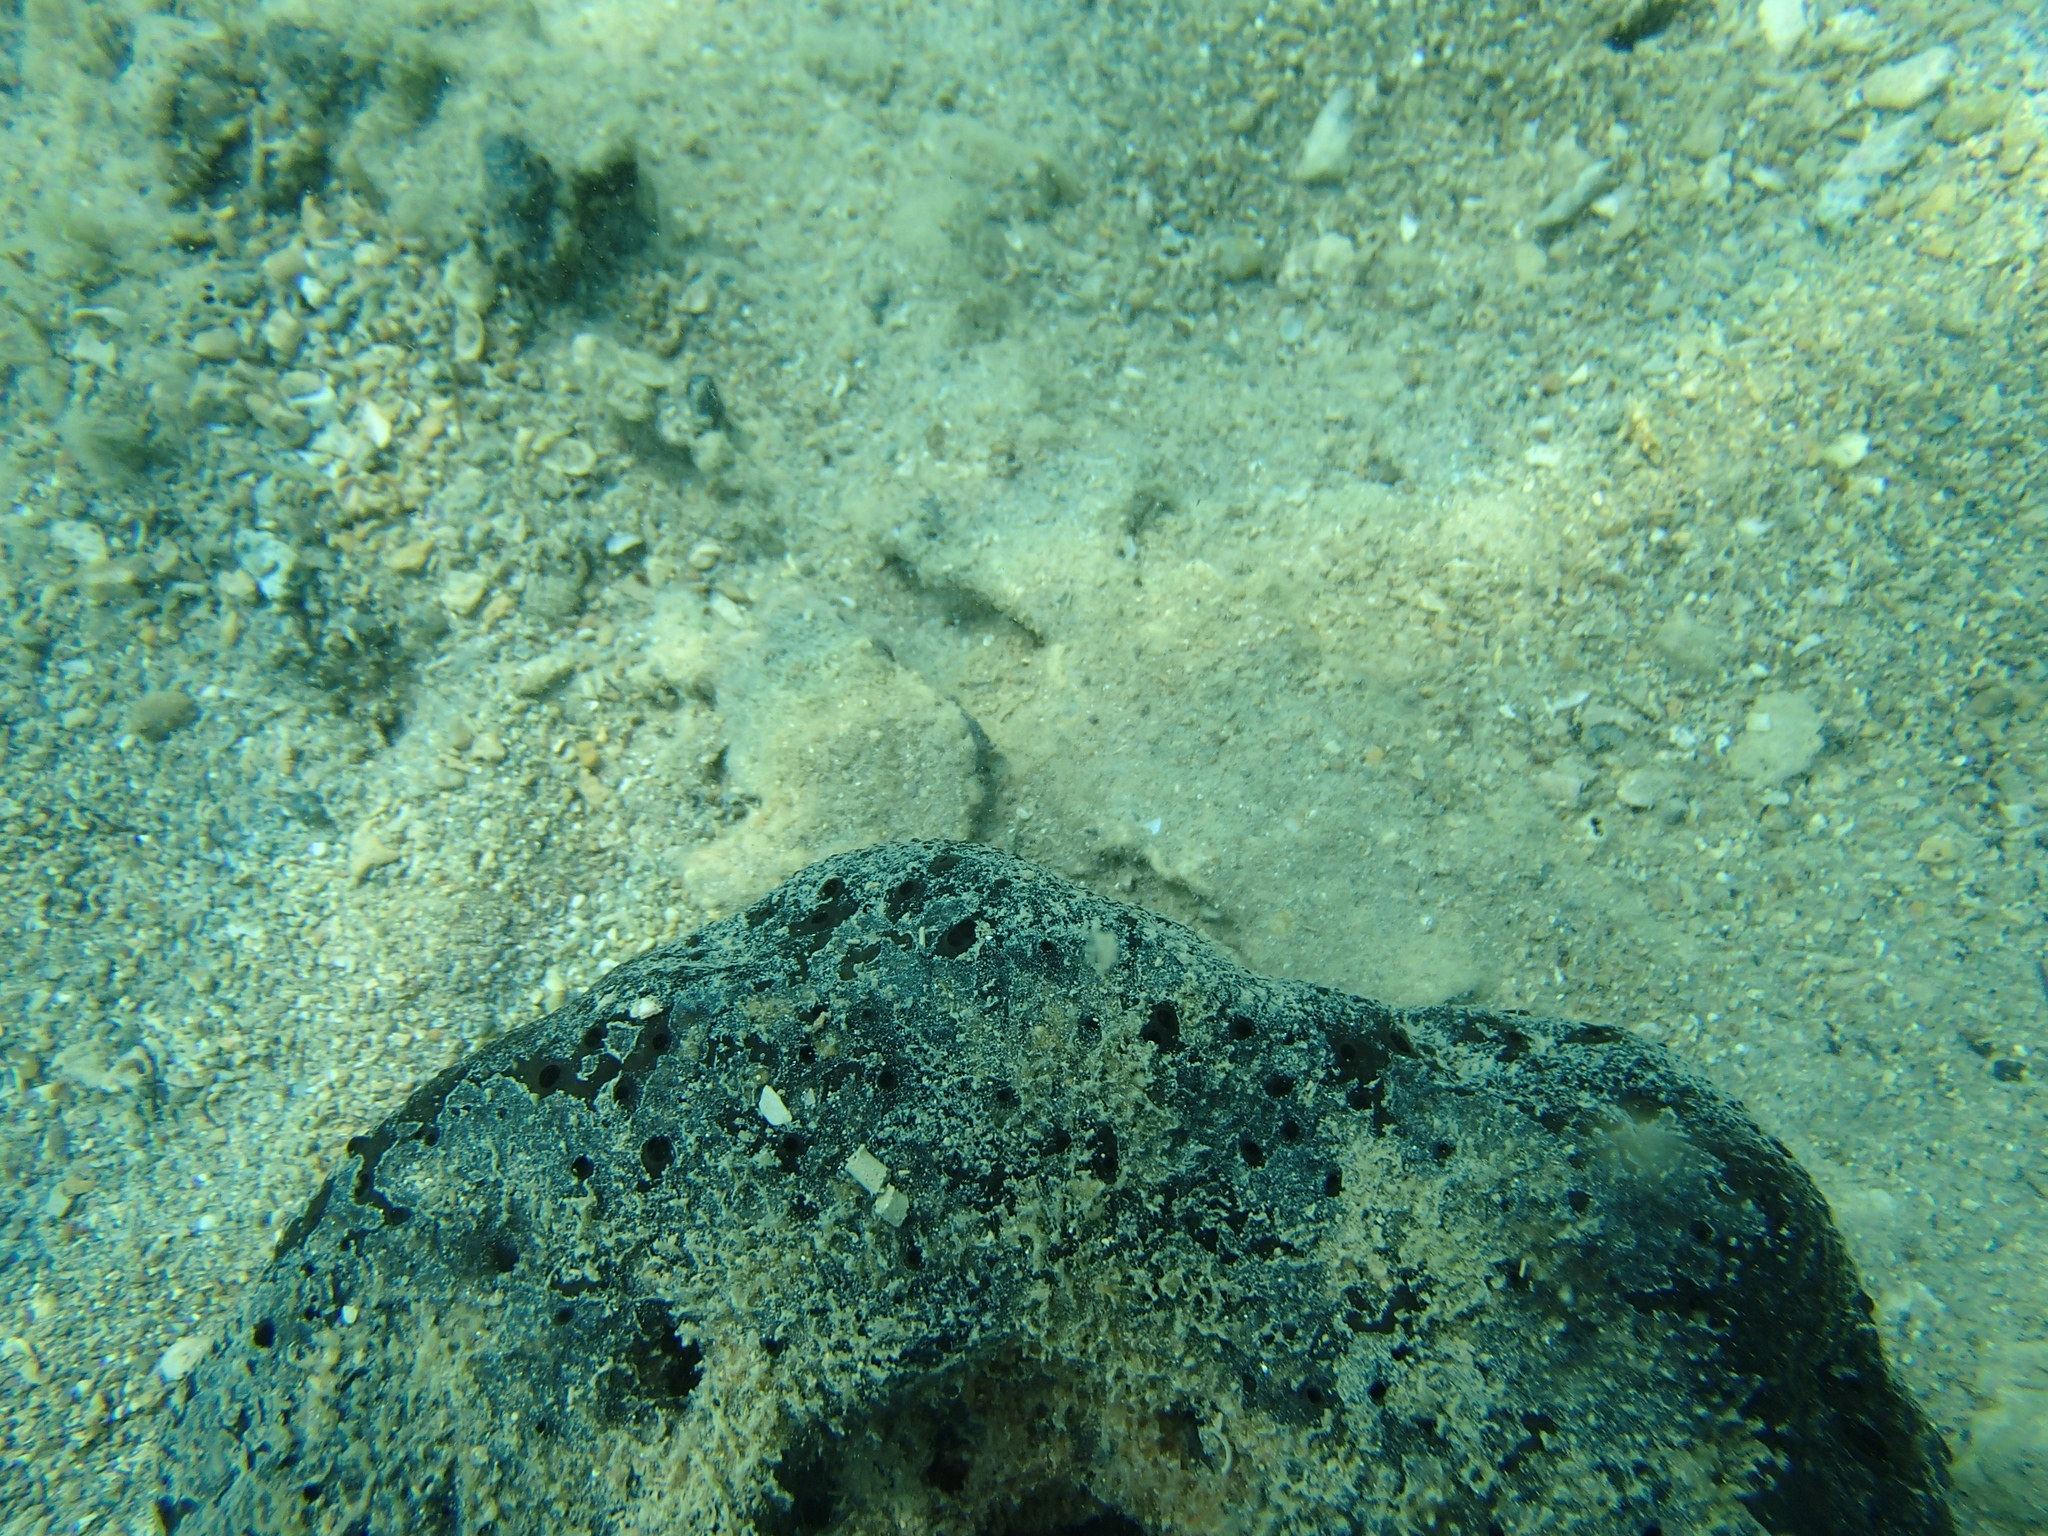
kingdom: Animalia
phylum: Porifera
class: Demospongiae
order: Dictyoceratida
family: Irciniidae
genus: Sarcotragus
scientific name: Sarcotragus spinosulus
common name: Black leather sponge
